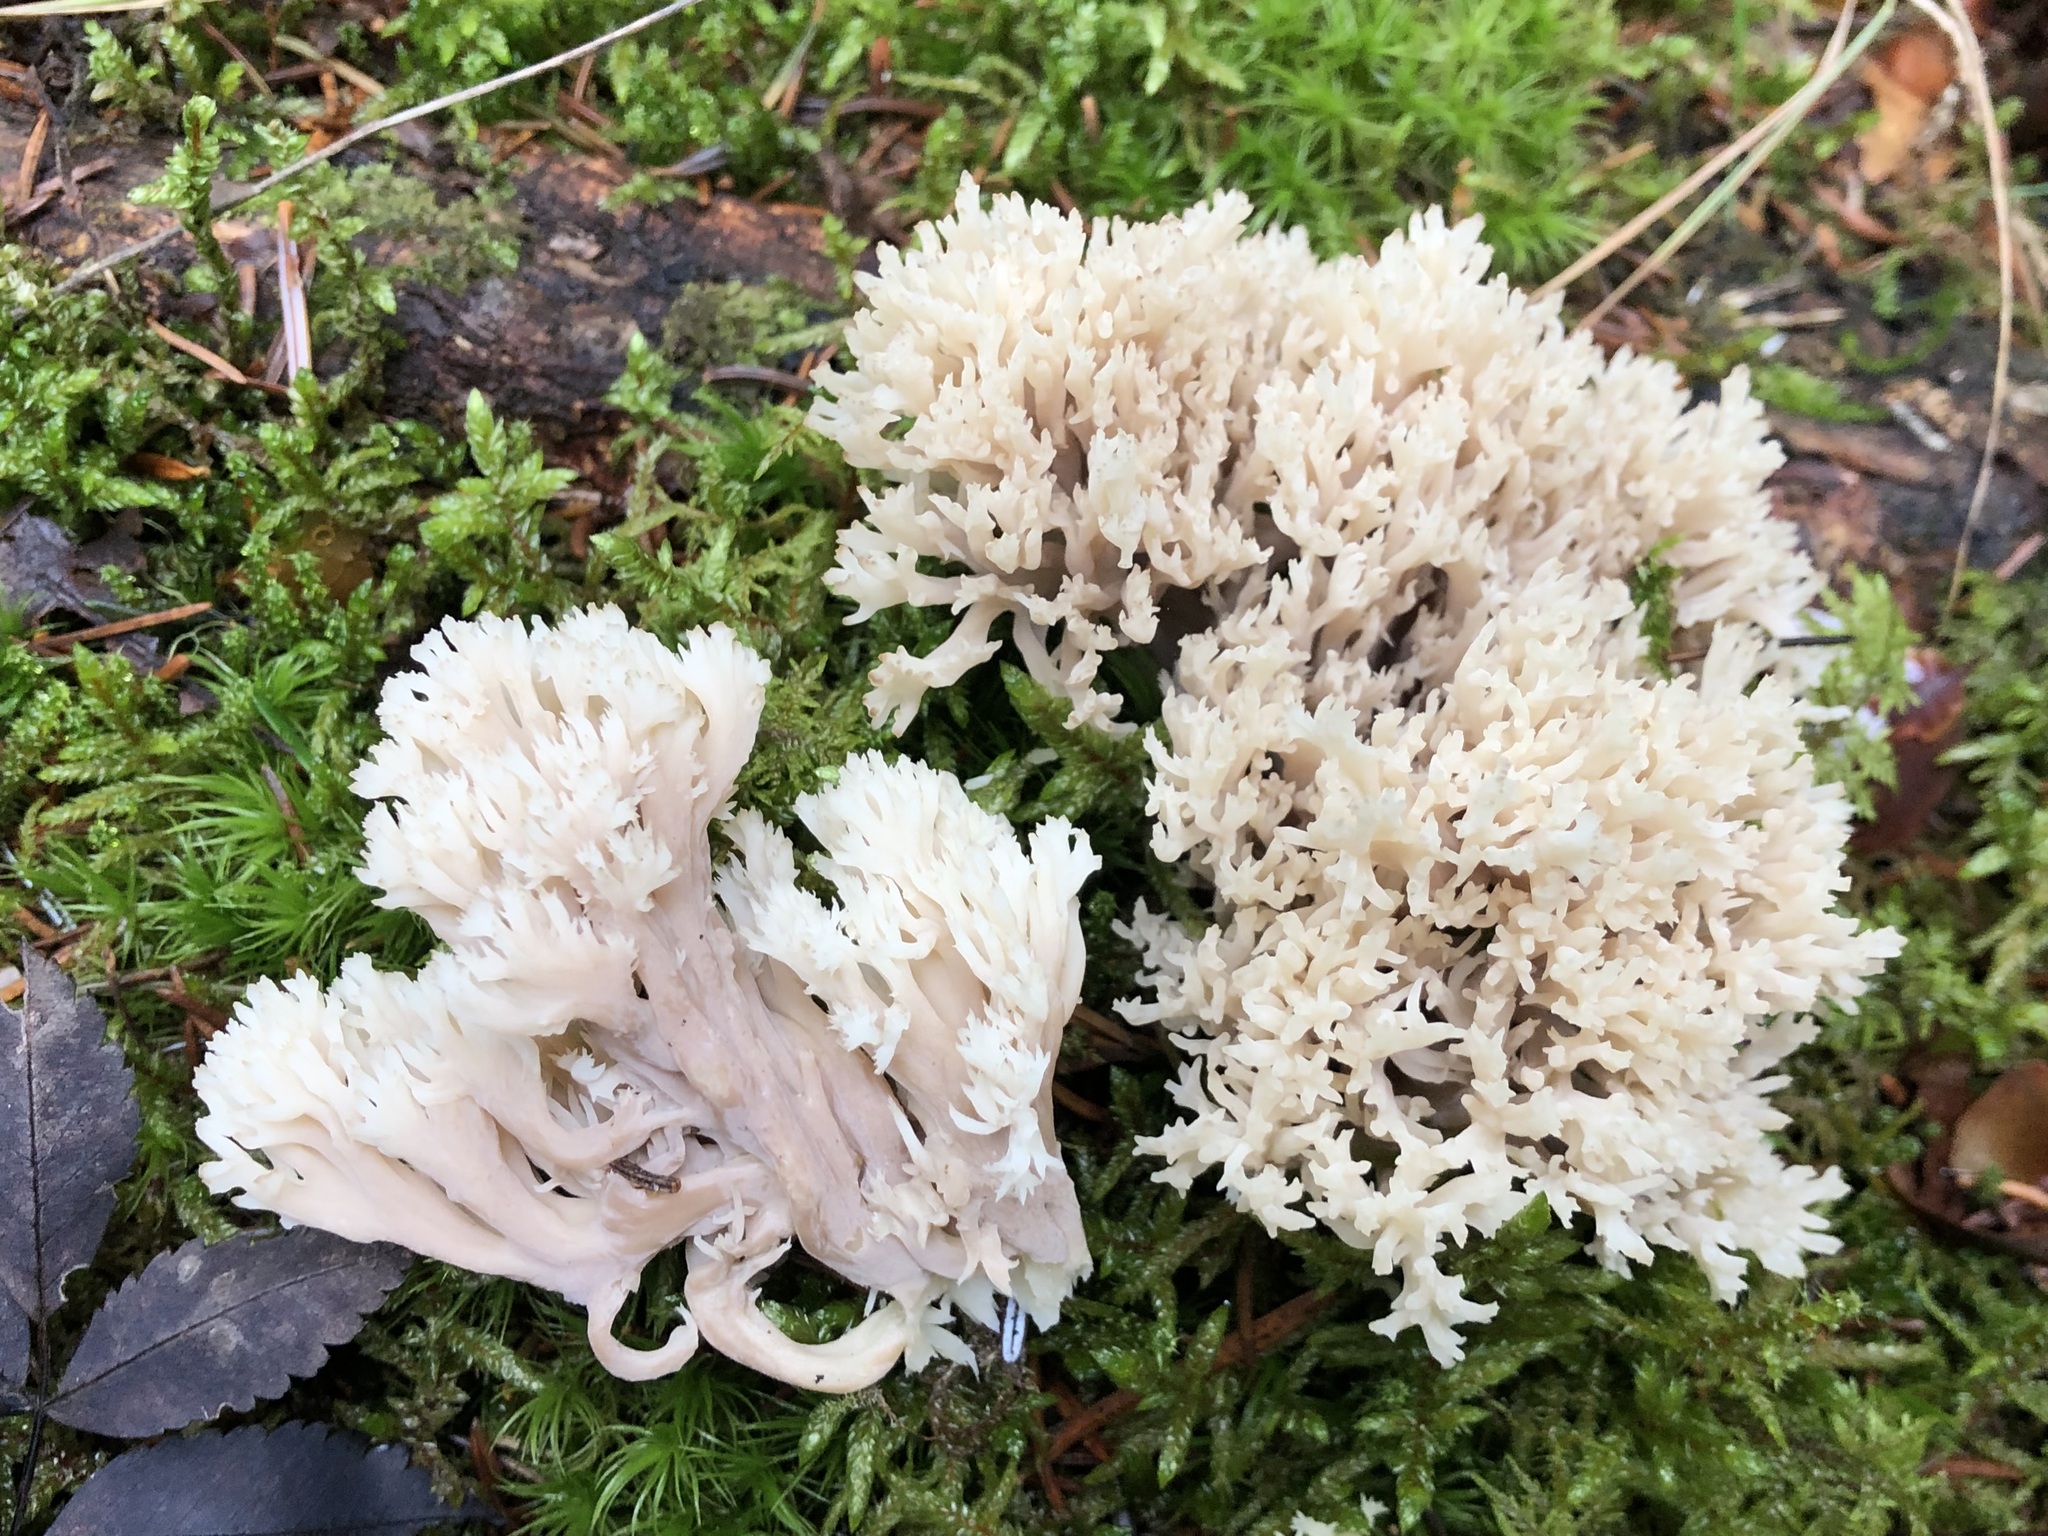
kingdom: Fungi
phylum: Basidiomycota
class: Agaricomycetes
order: Cantharellales
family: Hydnaceae
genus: Clavulina
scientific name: Clavulina coralloides
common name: Crested coral
